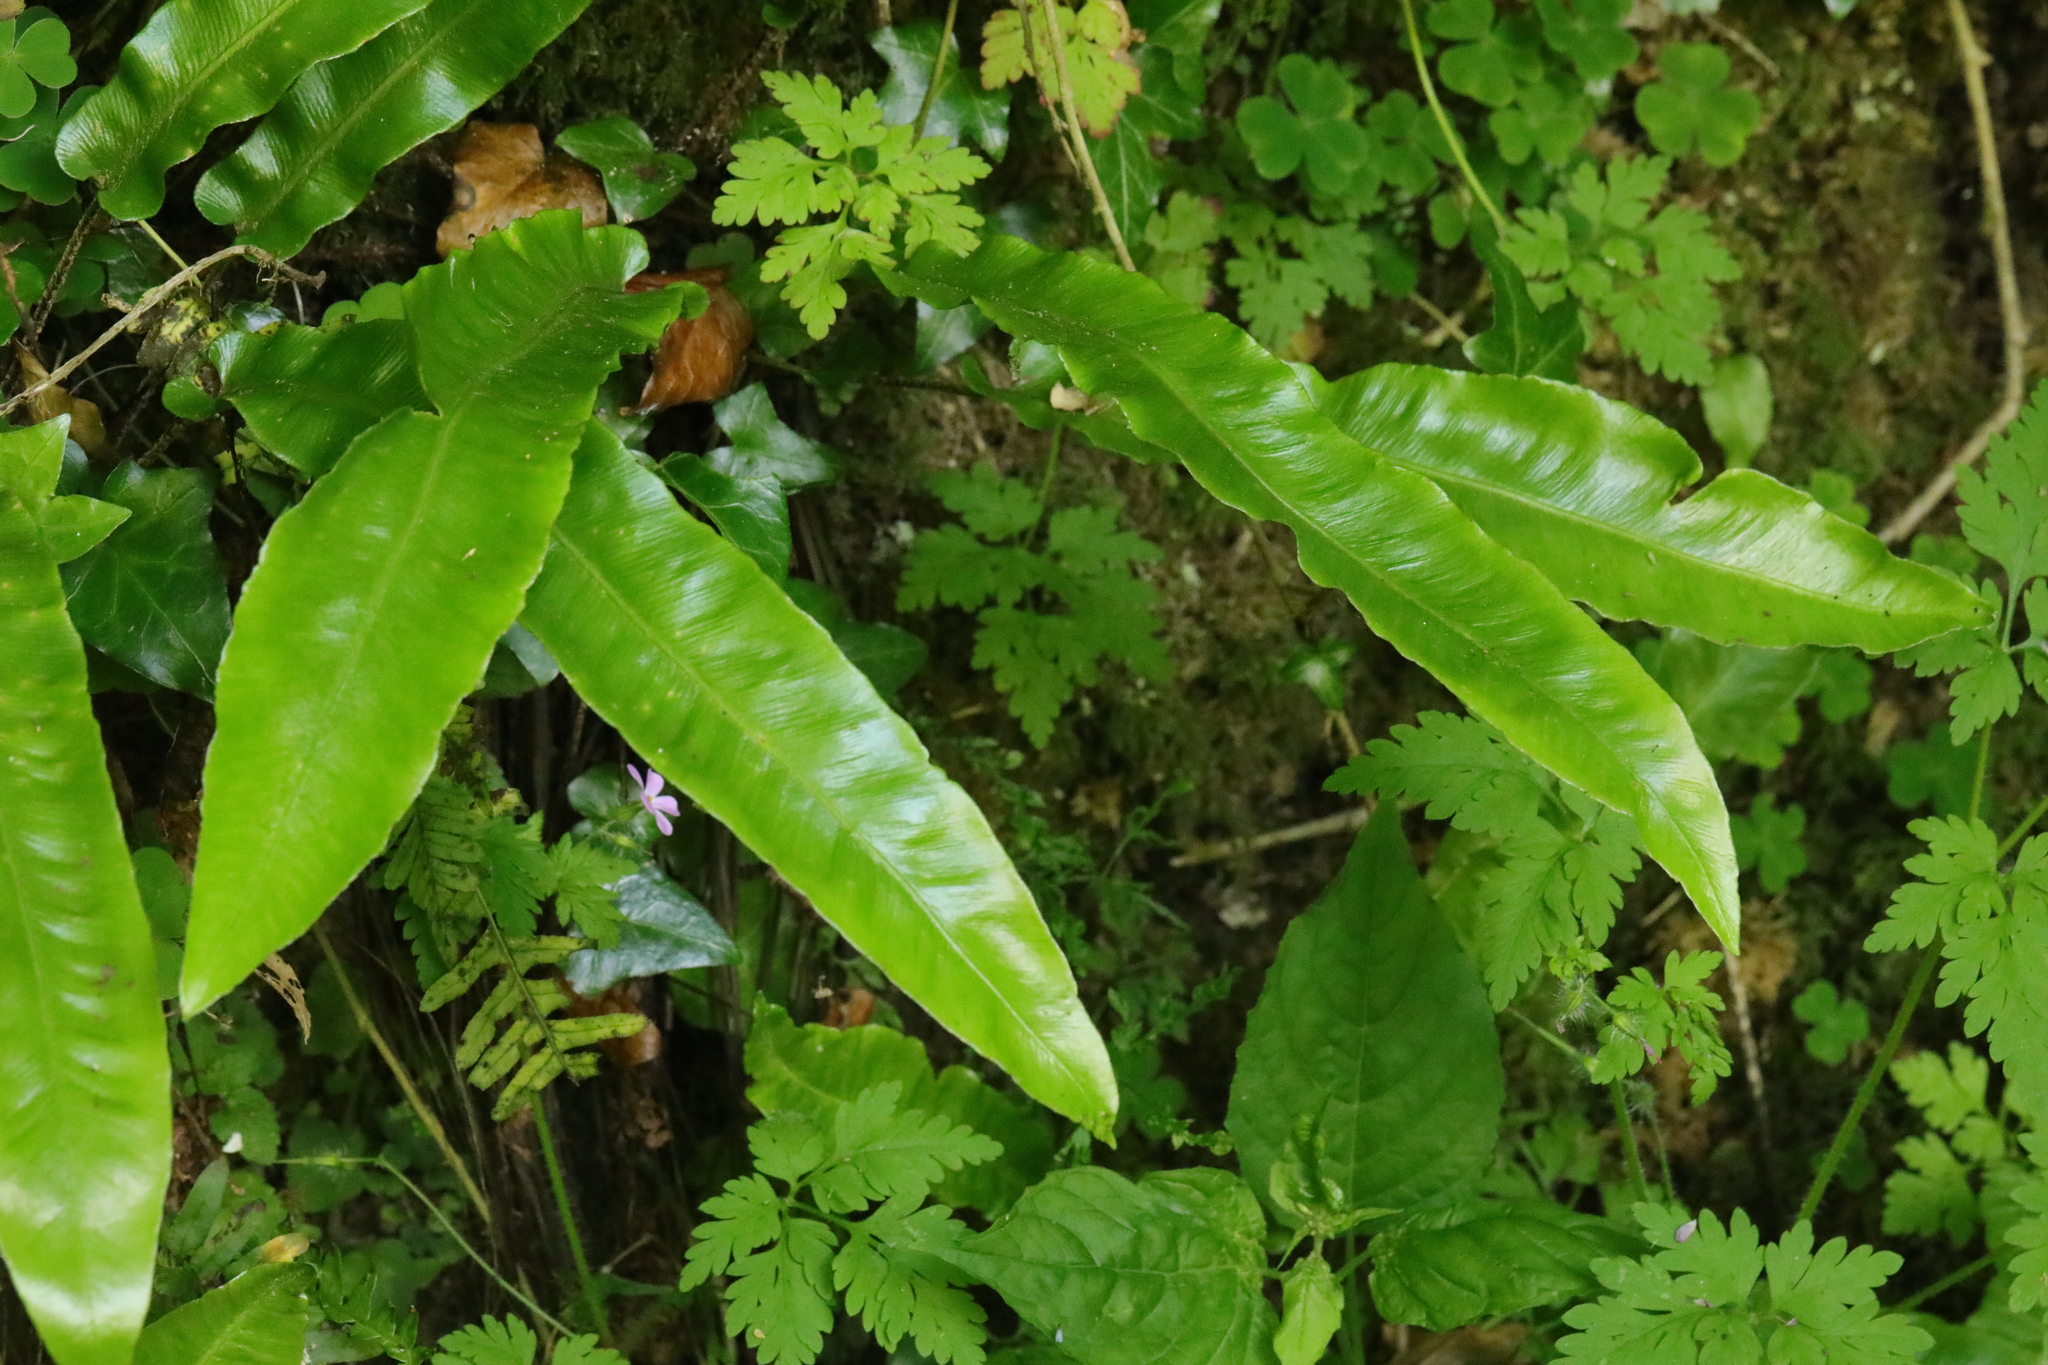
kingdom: Plantae
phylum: Tracheophyta
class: Polypodiopsida
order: Polypodiales
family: Aspleniaceae
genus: Asplenium
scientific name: Asplenium scolopendrium
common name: Hart's-tongue fern
